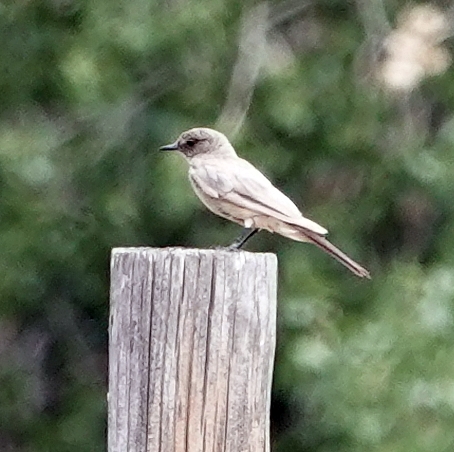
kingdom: Animalia
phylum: Chordata
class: Aves
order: Passeriformes
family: Tyrannidae
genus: Sayornis
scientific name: Sayornis saya
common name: Say's phoebe
